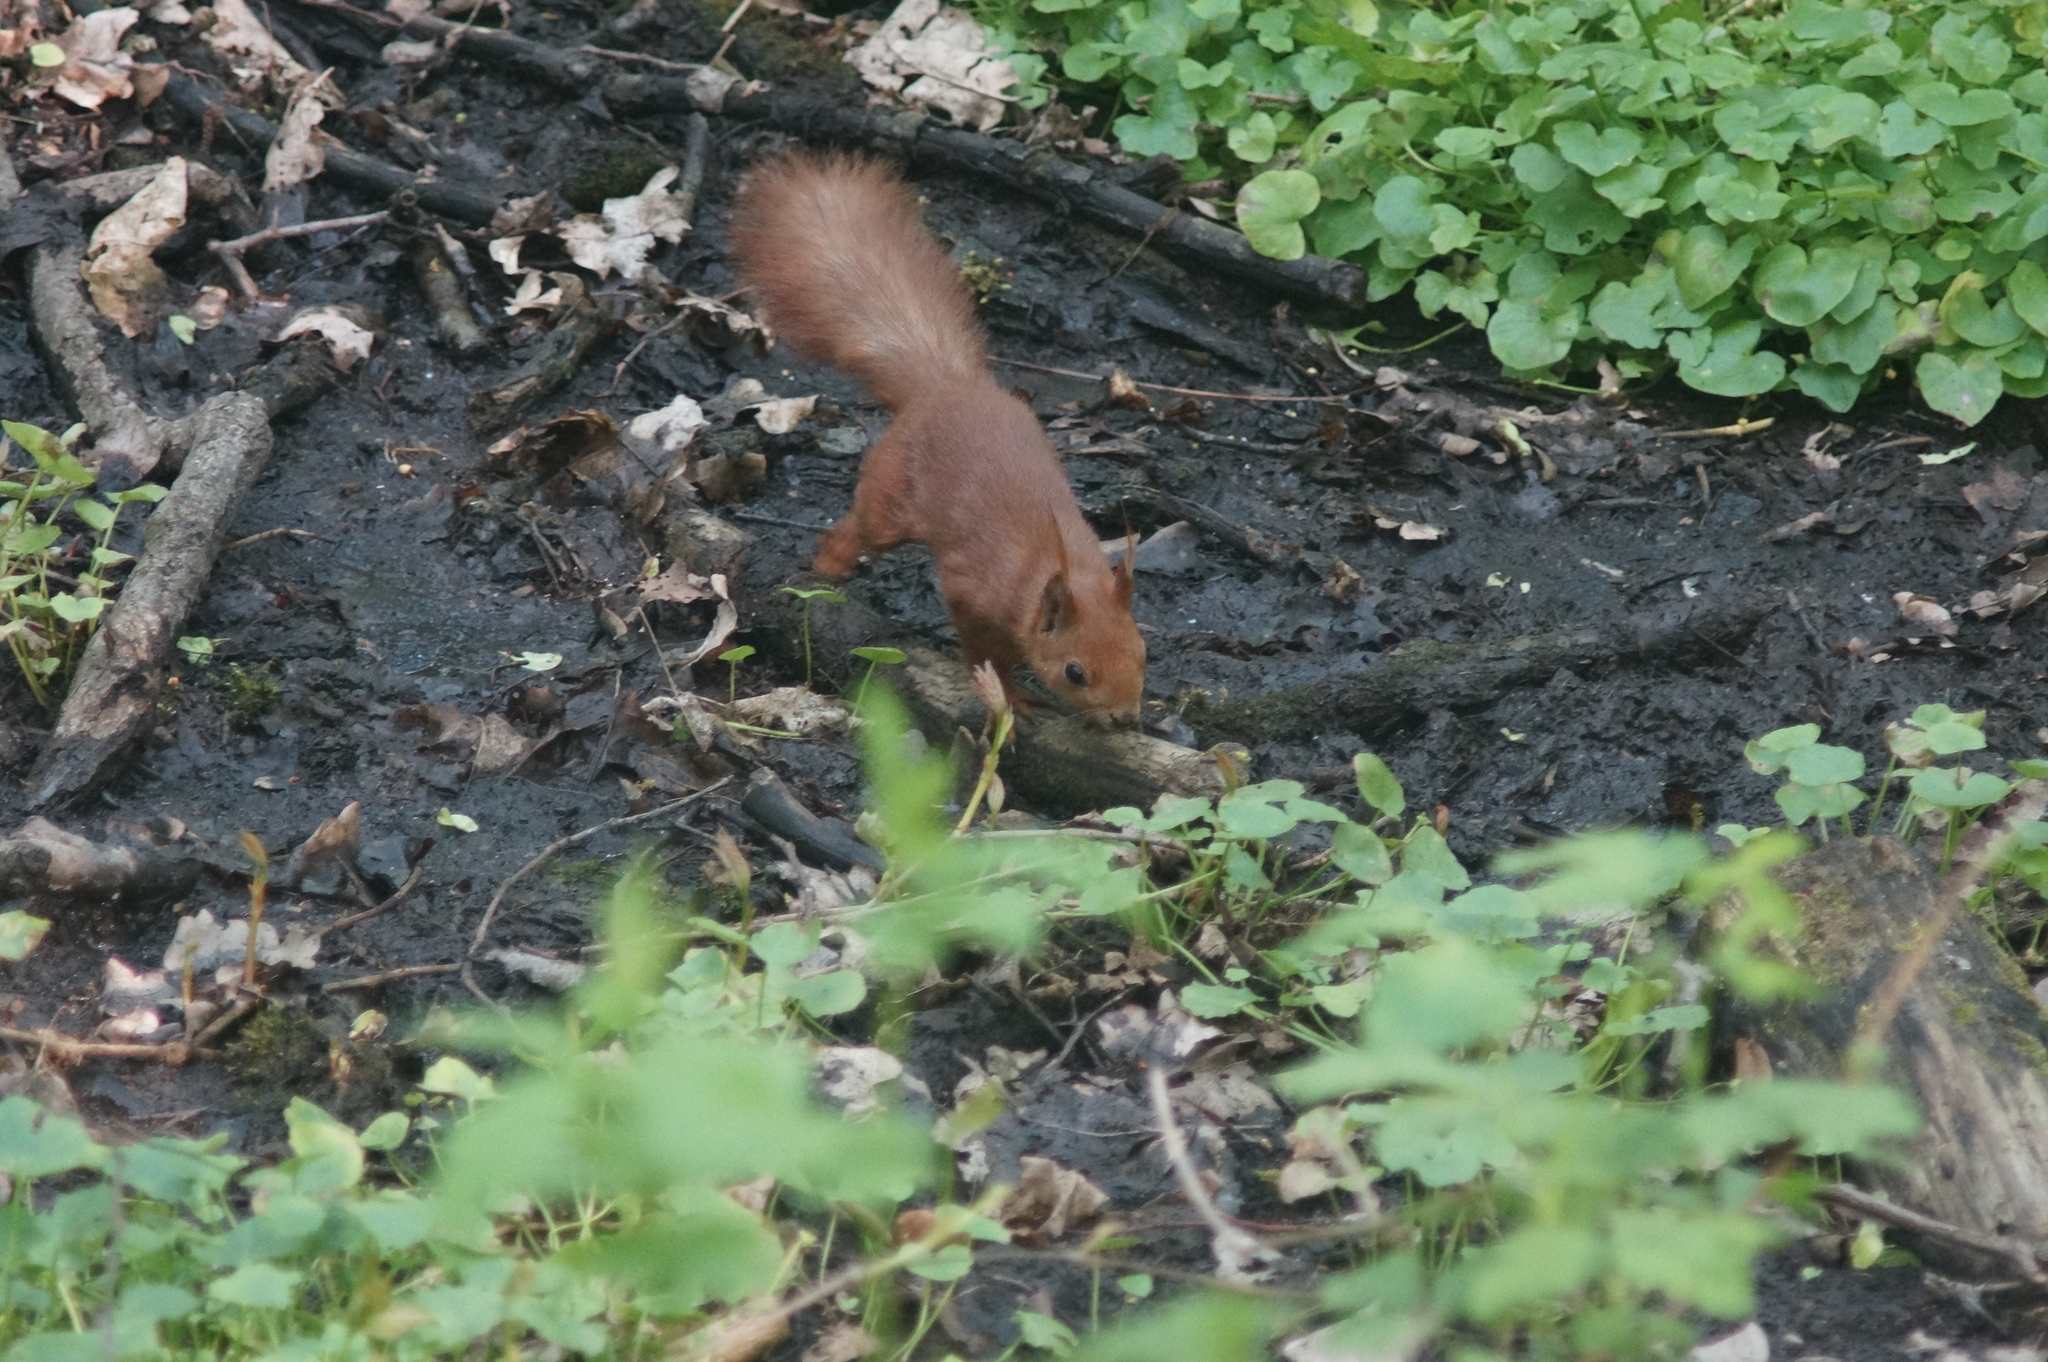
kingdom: Animalia
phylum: Chordata
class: Mammalia
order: Rodentia
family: Sciuridae
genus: Sciurus
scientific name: Sciurus vulgaris
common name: Eurasian red squirrel
